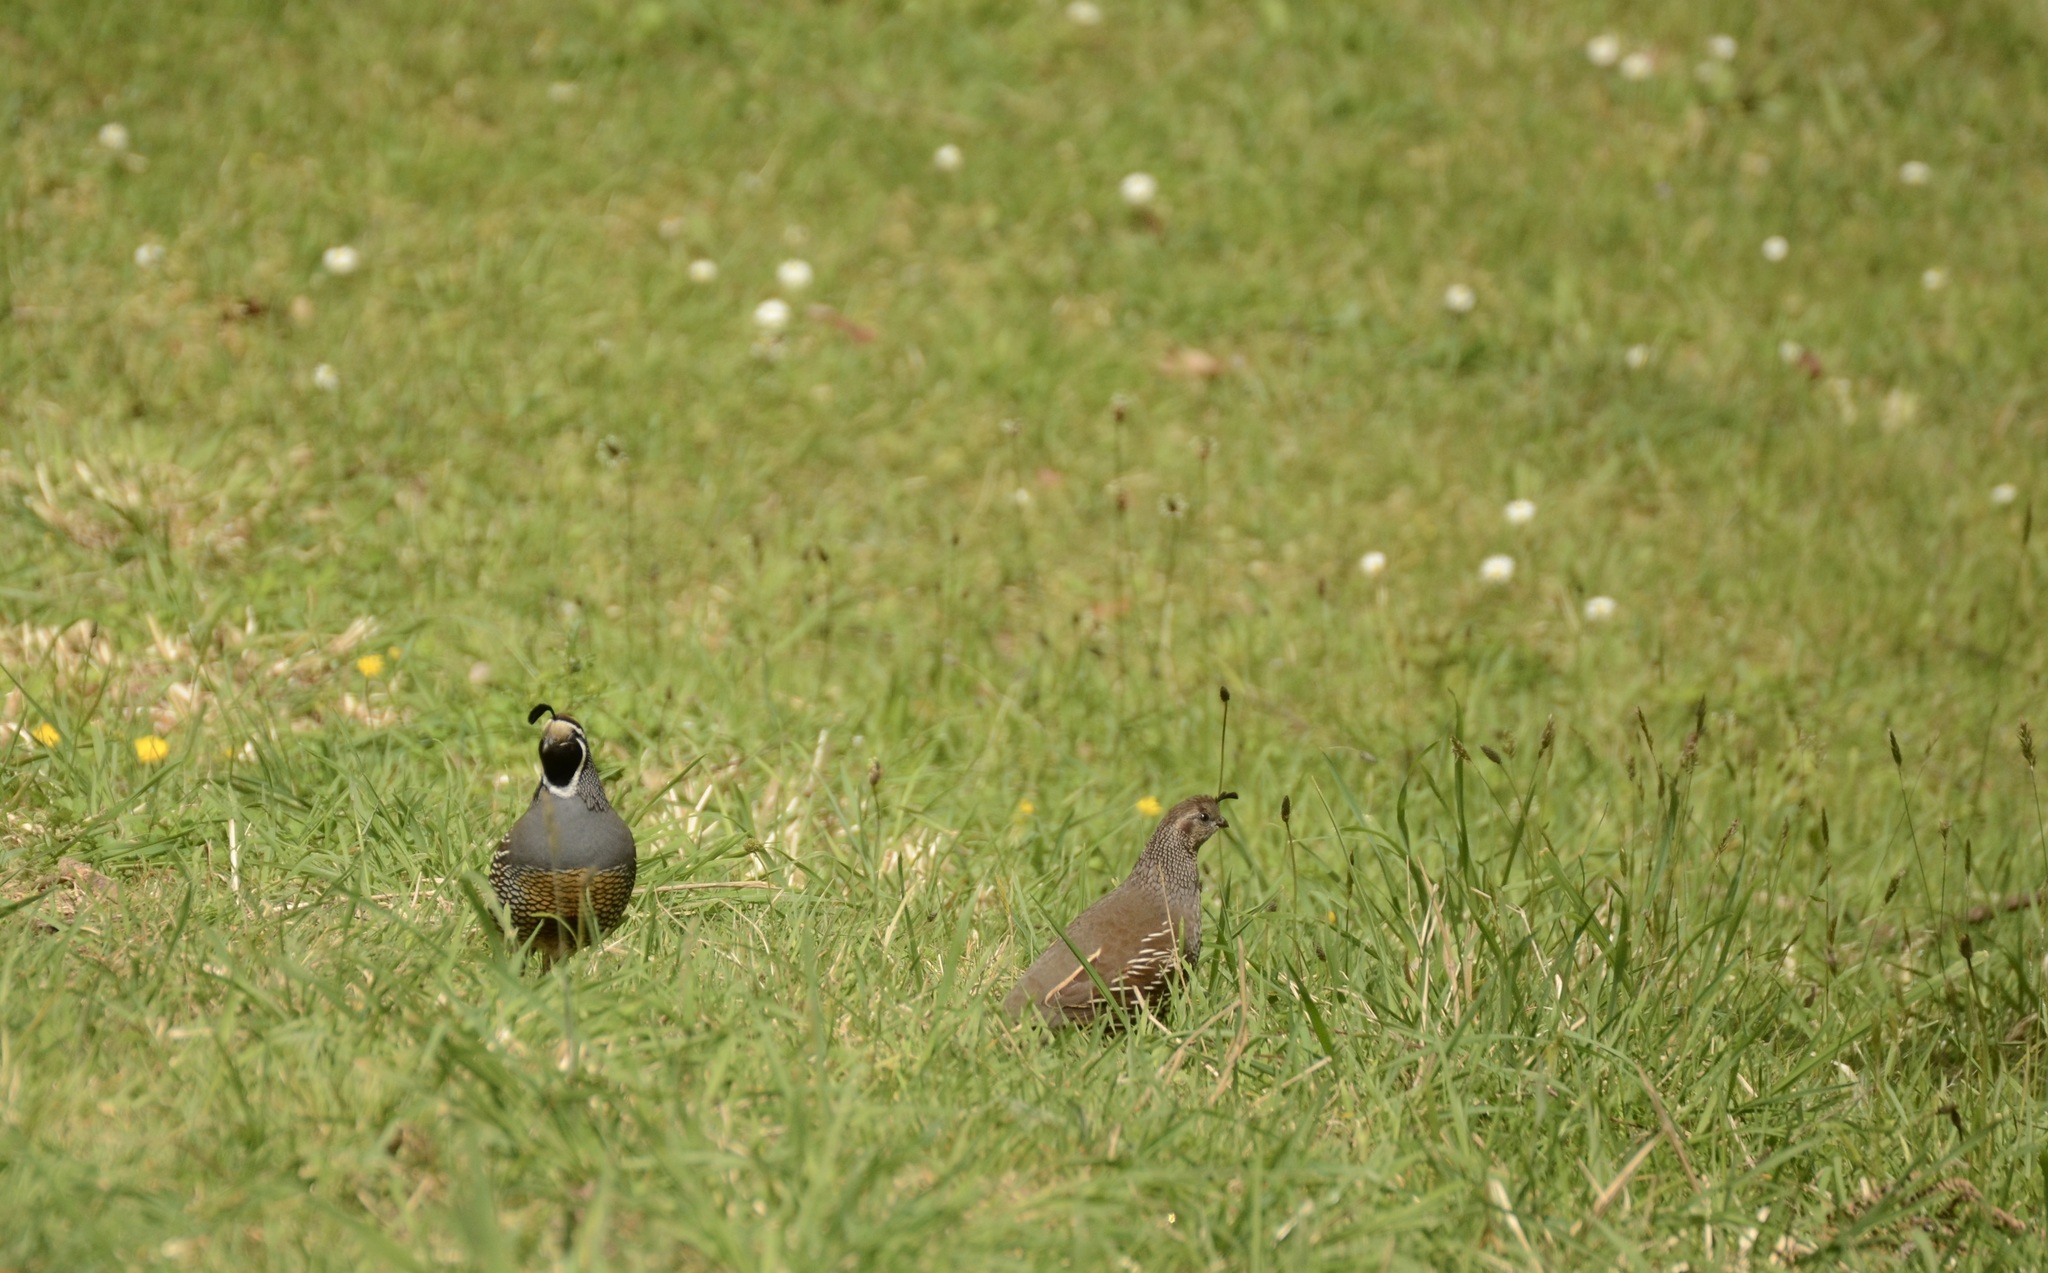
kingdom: Animalia
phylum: Chordata
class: Aves
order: Galliformes
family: Odontophoridae
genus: Callipepla
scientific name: Callipepla californica
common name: California quail
